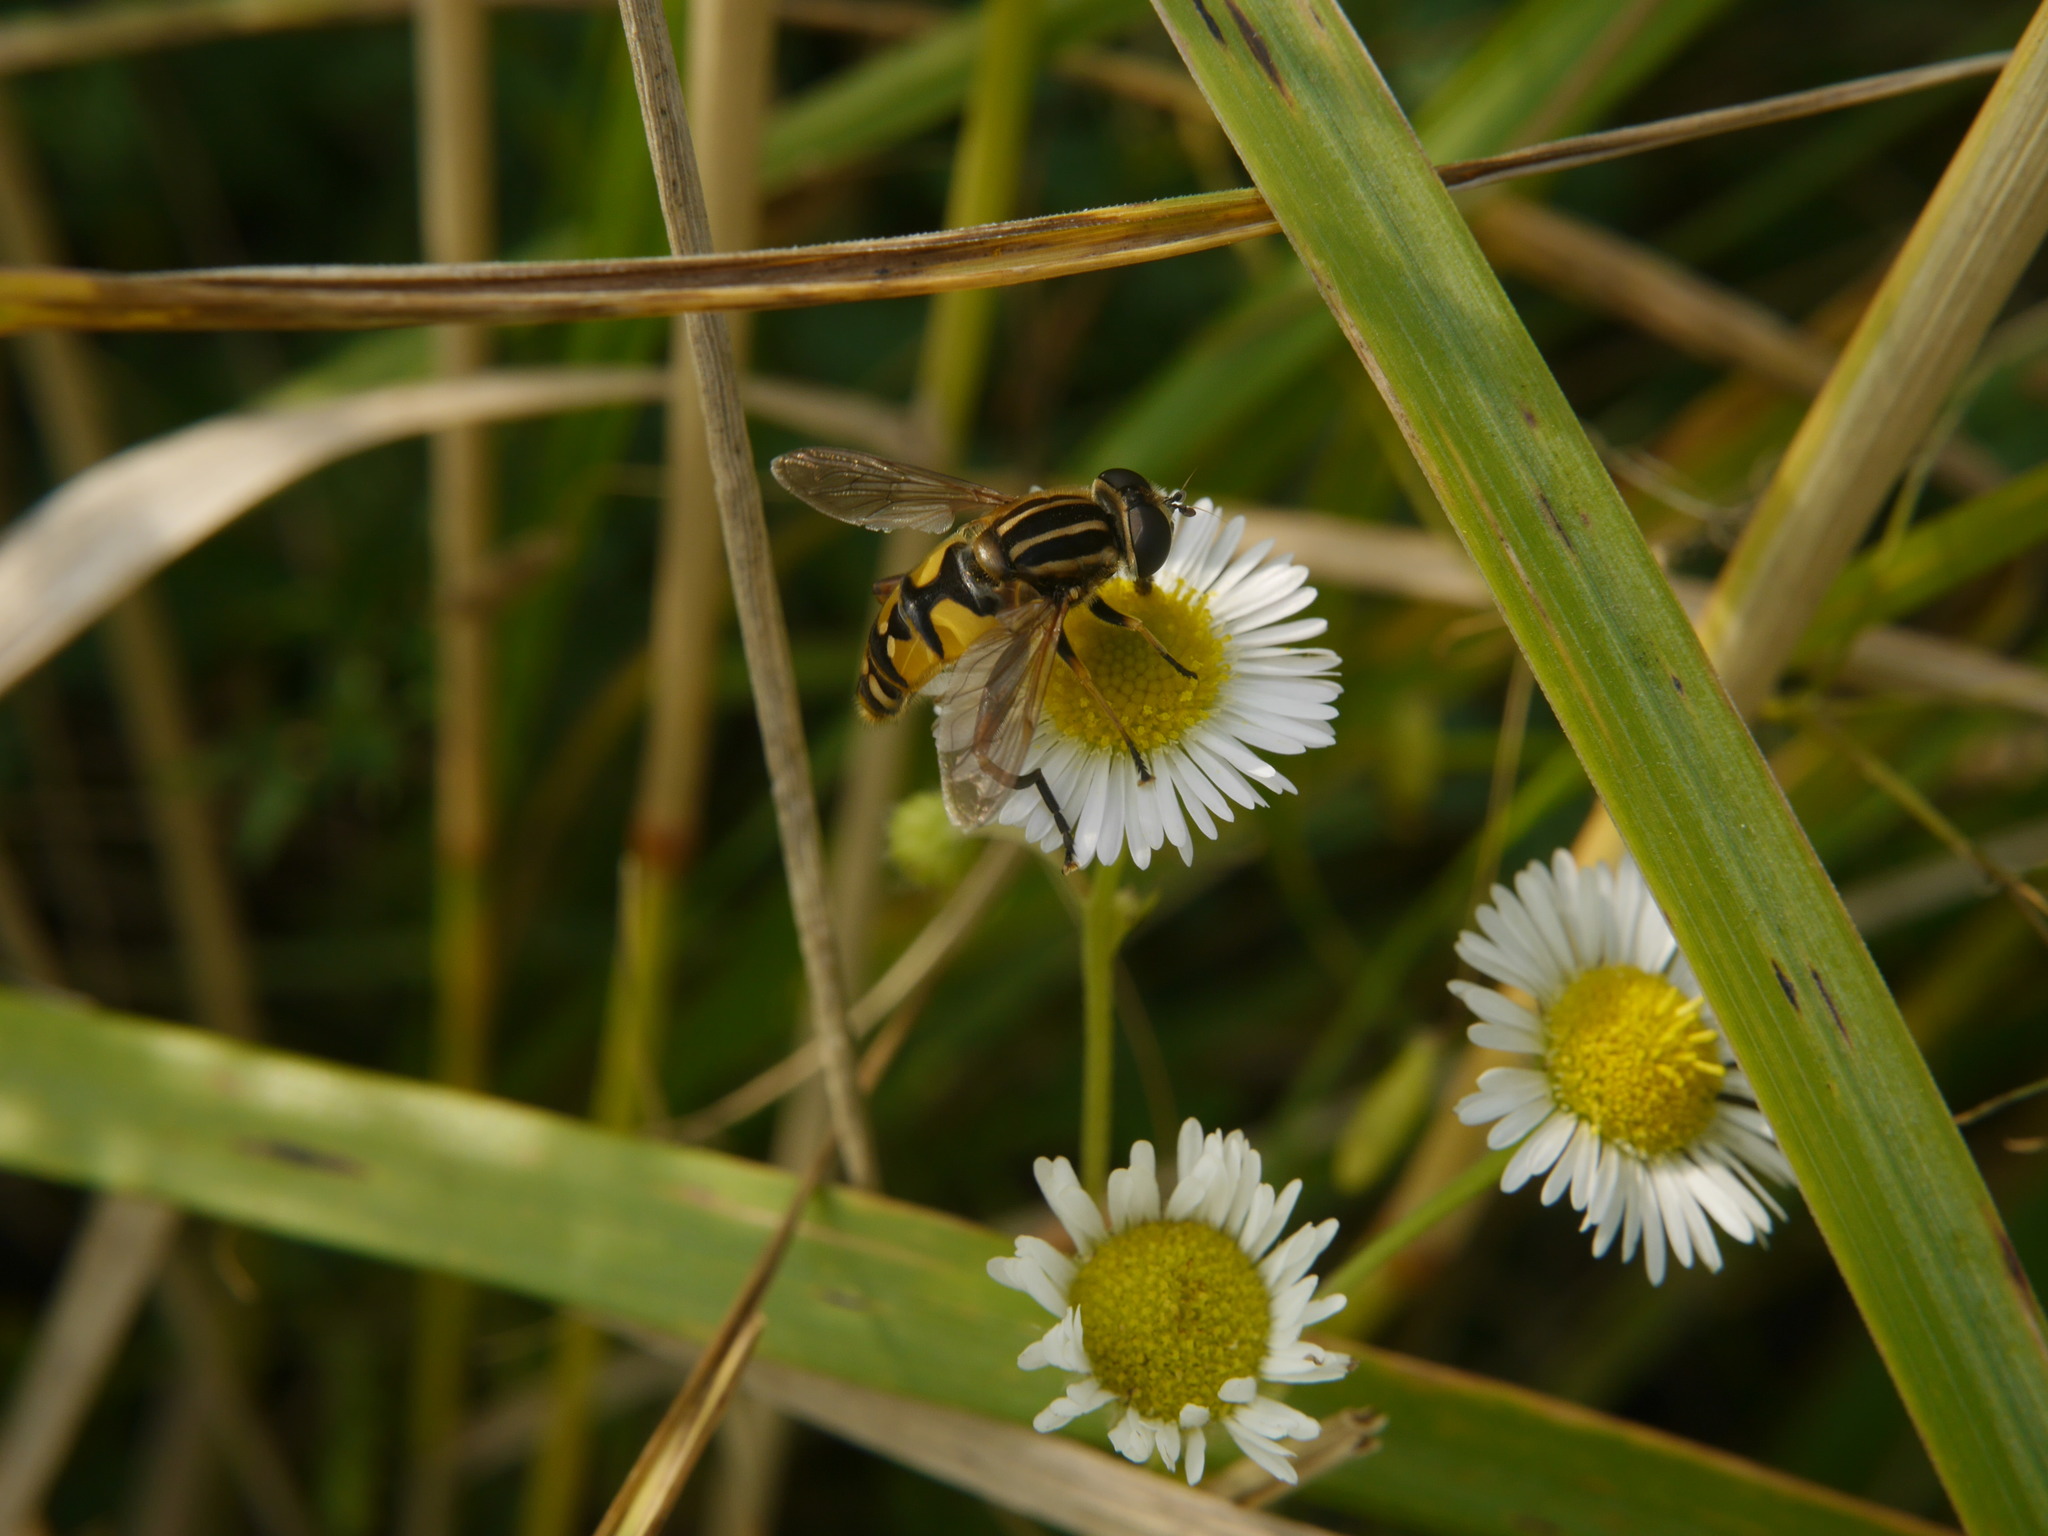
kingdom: Animalia
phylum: Arthropoda
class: Insecta
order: Diptera
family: Syrphidae
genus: Helophilus
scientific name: Helophilus pendulus
